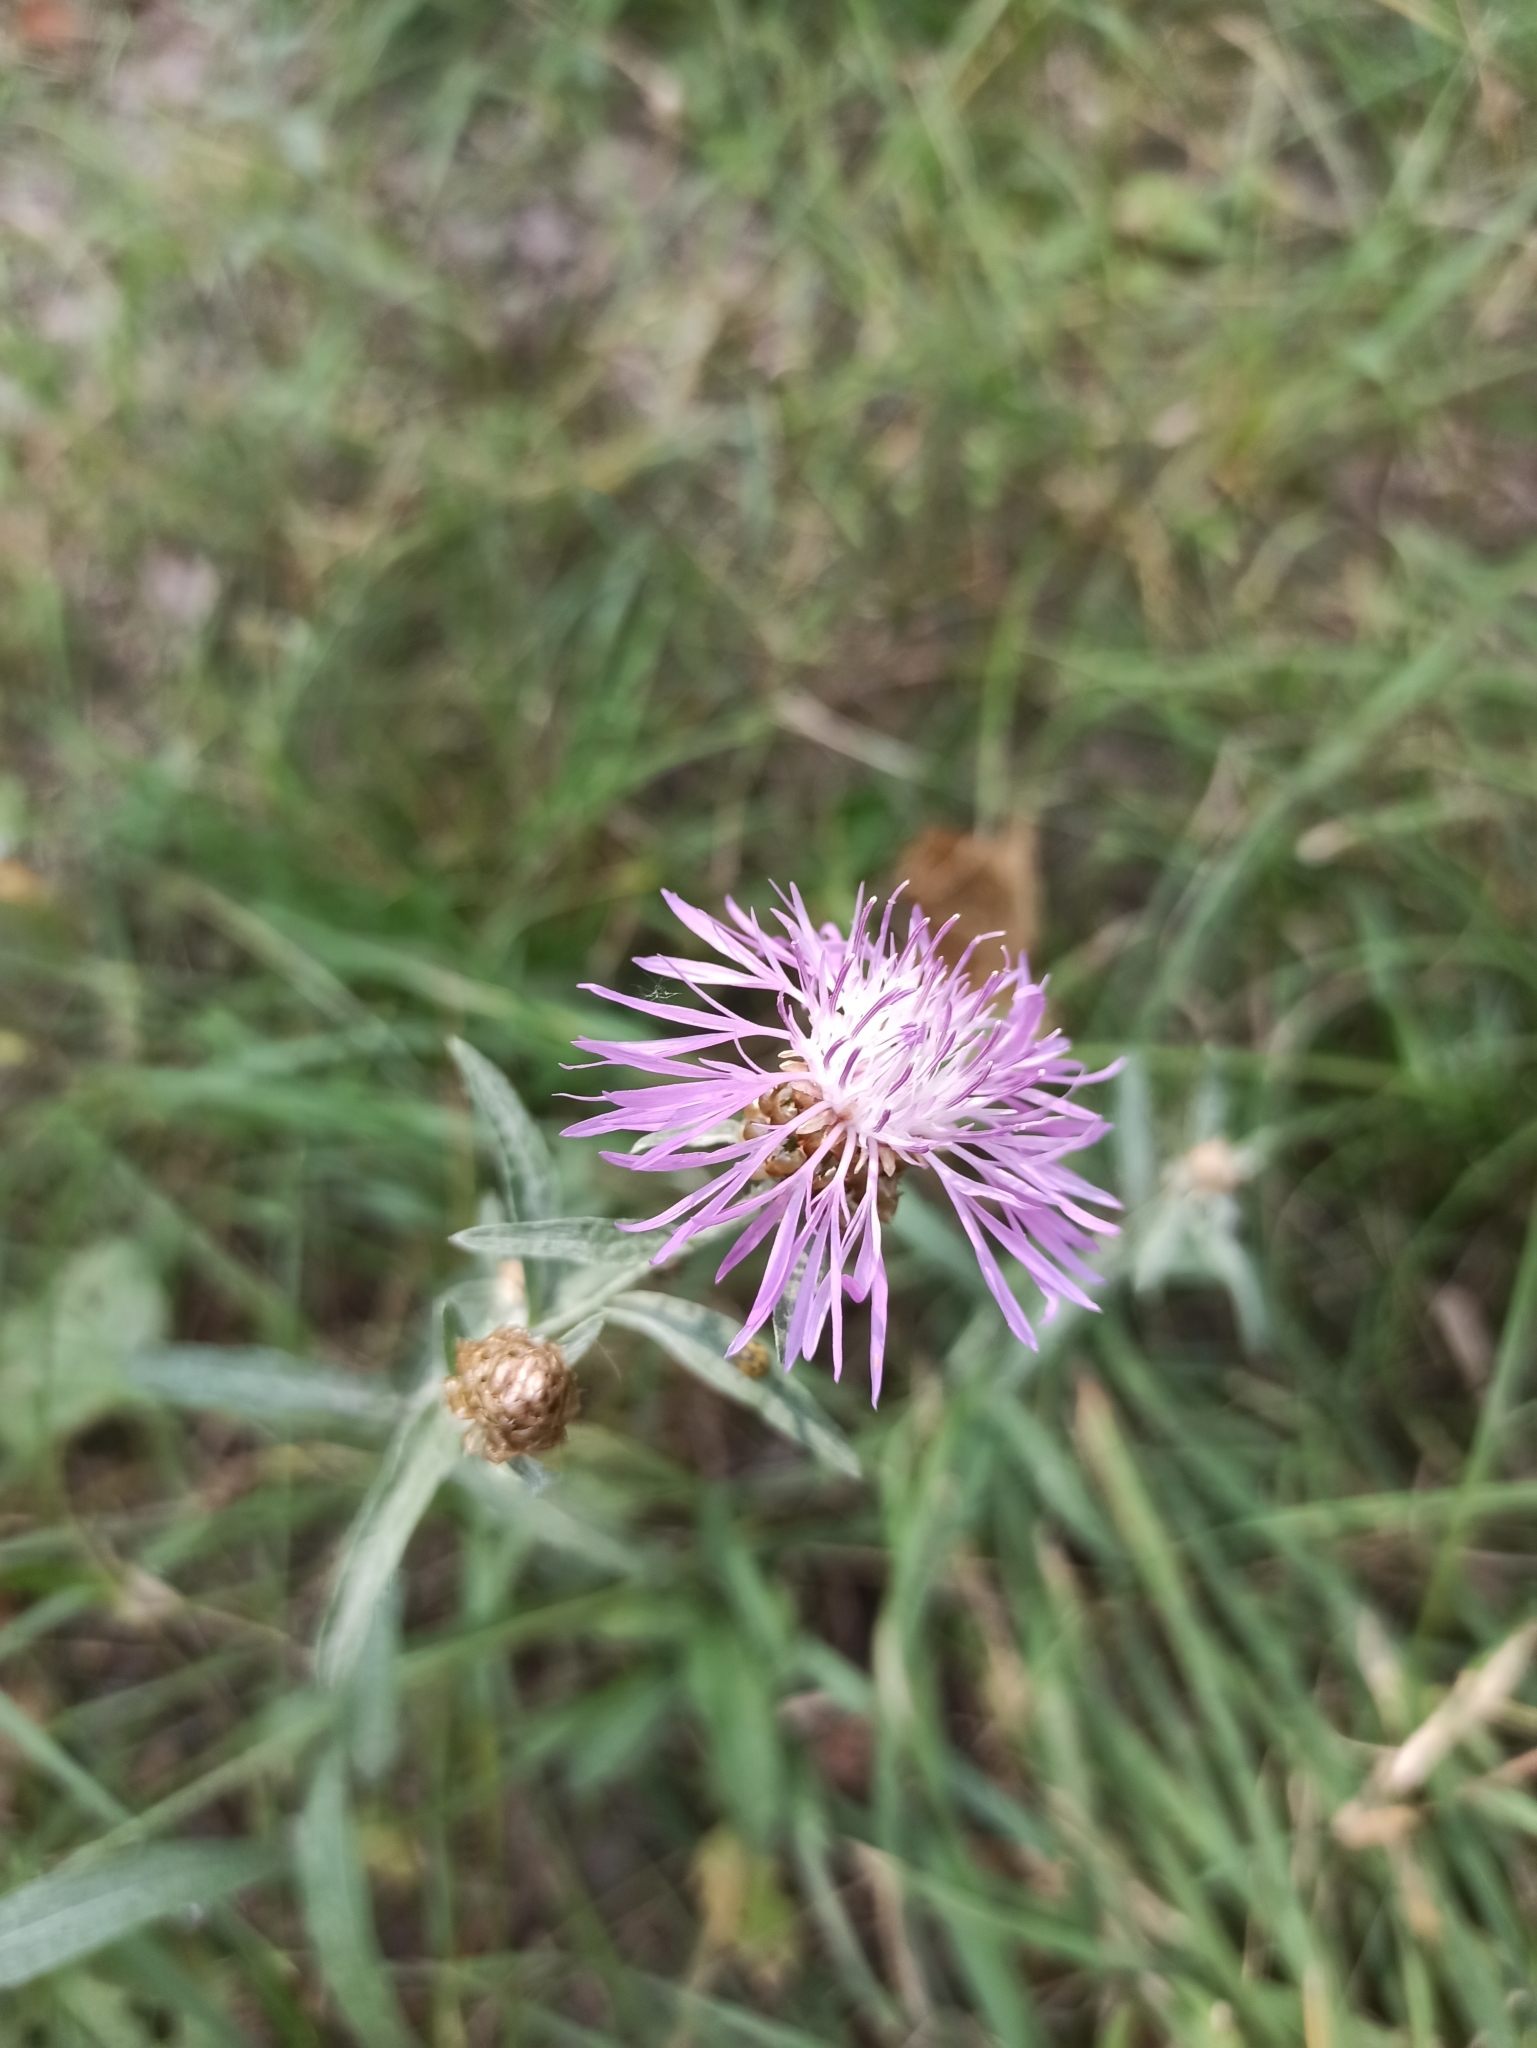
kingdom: Plantae
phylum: Tracheophyta
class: Magnoliopsida
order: Asterales
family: Asteraceae
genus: Centaurea
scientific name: Centaurea jacea
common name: Brown knapweed
